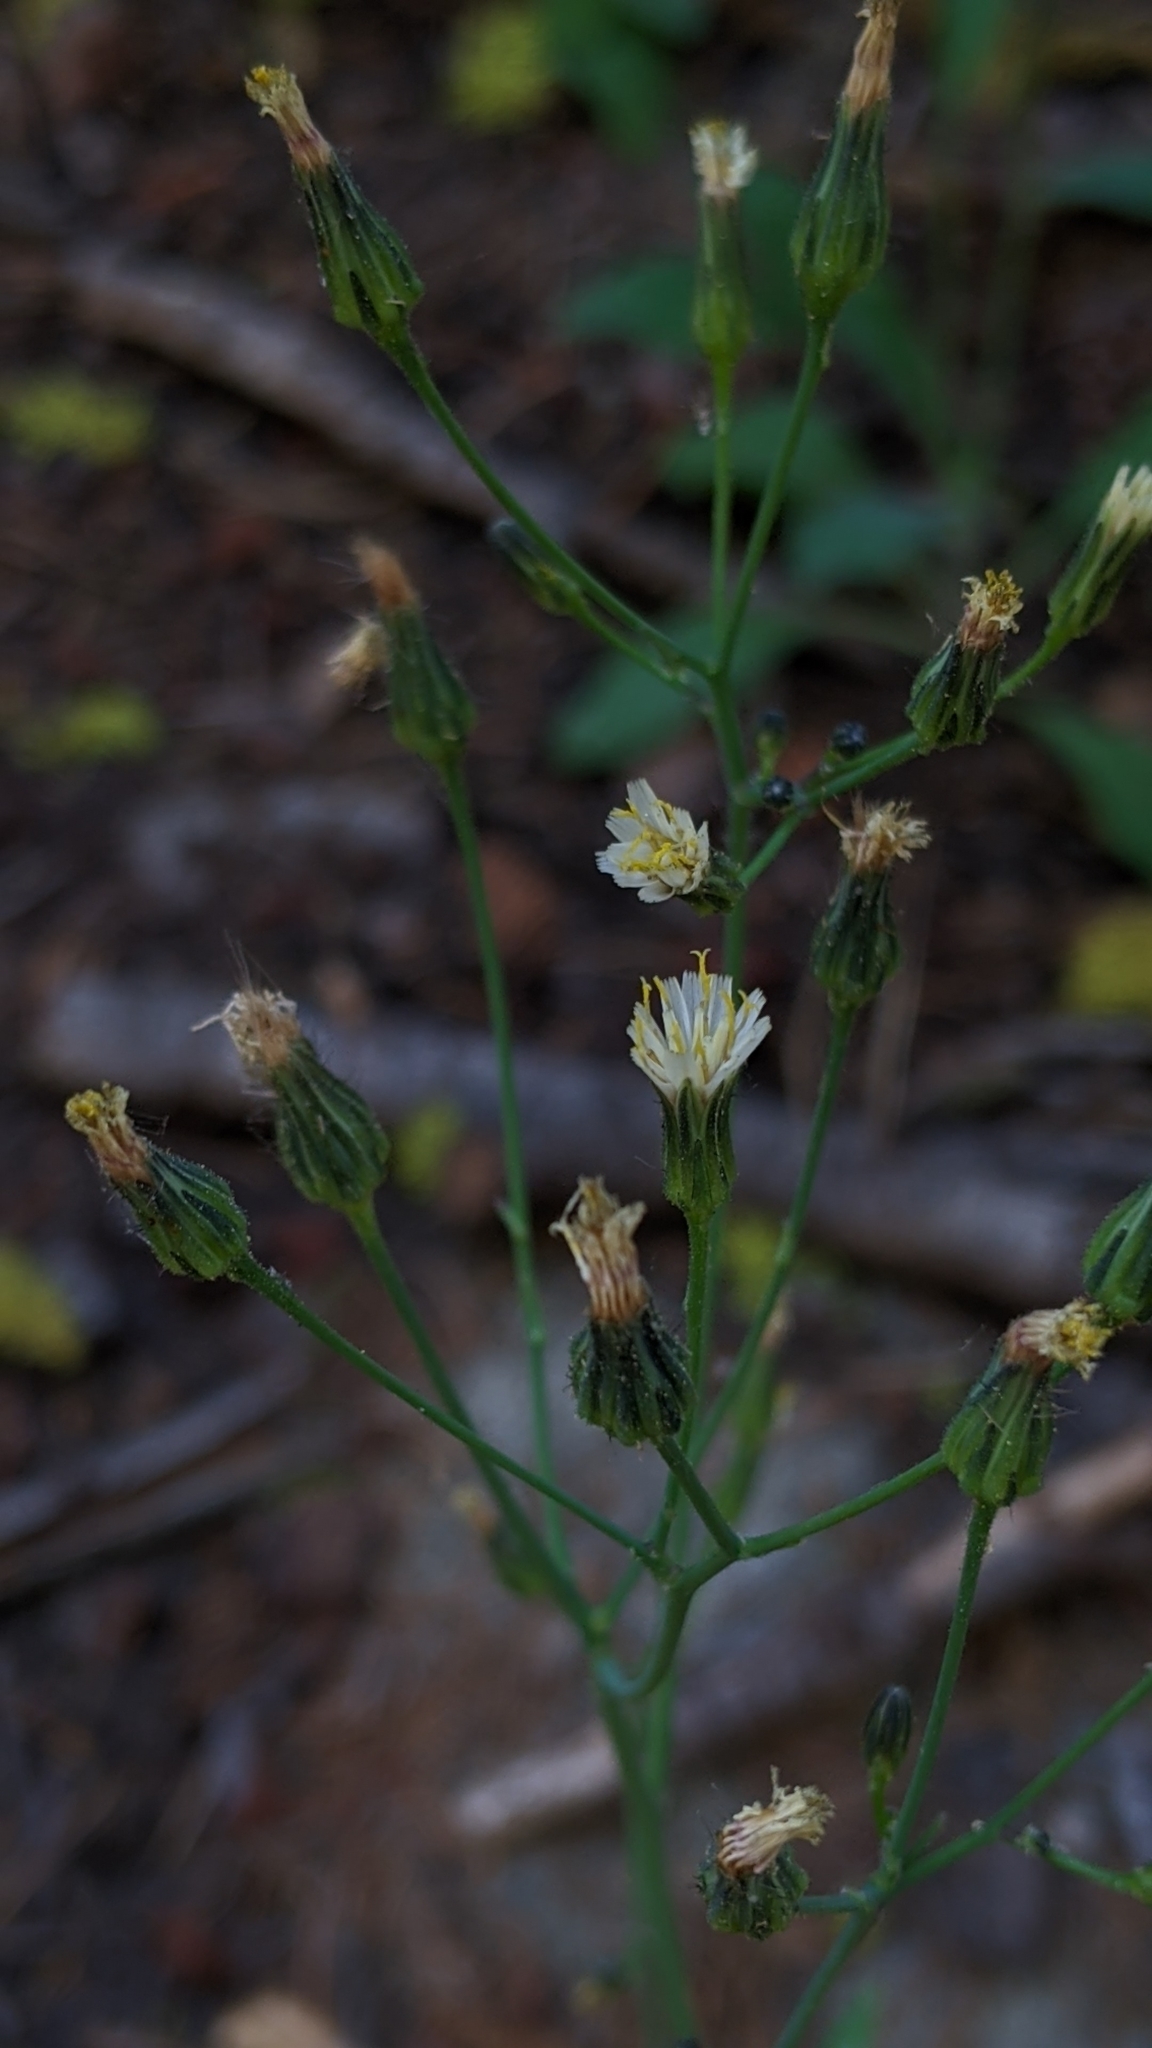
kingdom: Plantae
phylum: Tracheophyta
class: Magnoliopsida
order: Asterales
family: Asteraceae
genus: Hieracium
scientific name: Hieracium albiflorum
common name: White hawkweed
